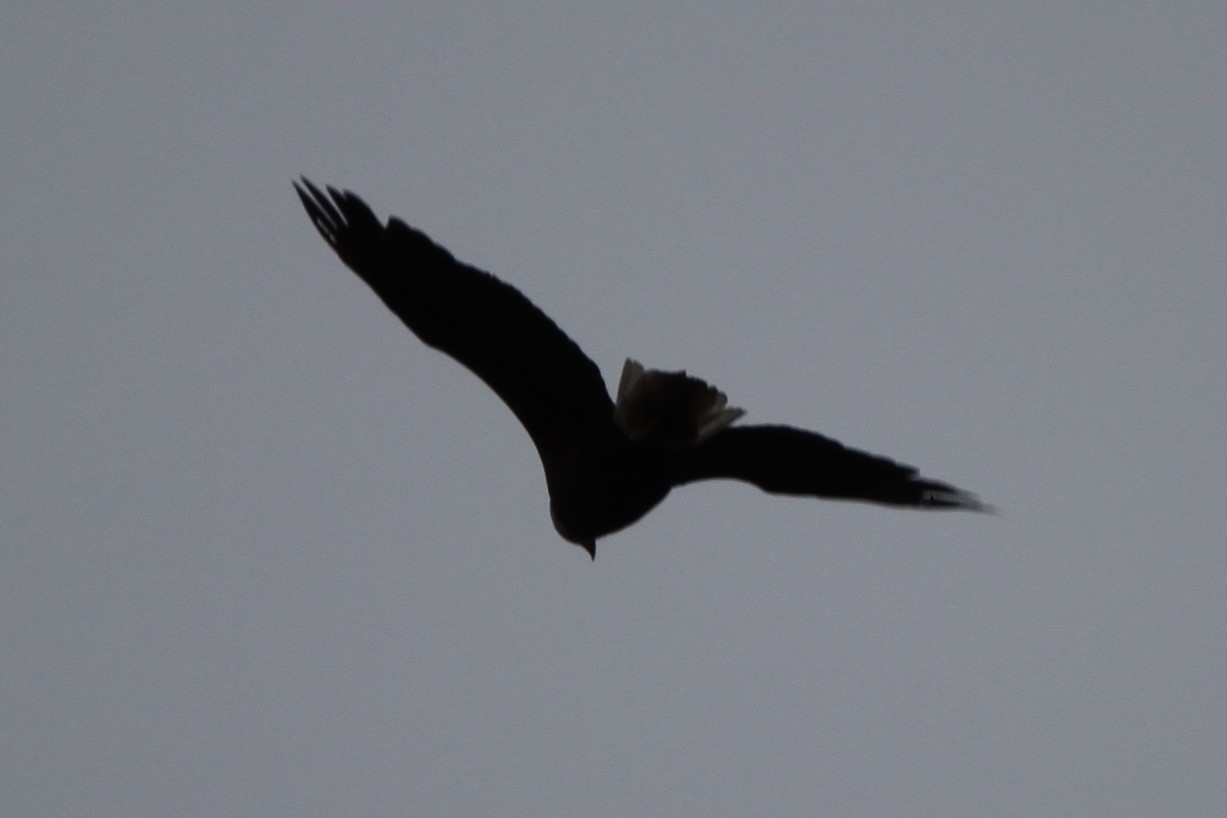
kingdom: Animalia
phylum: Chordata
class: Aves
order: Accipitriformes
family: Accipitridae
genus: Haliaeetus
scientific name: Haliaeetus leucocephalus
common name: Bald eagle
